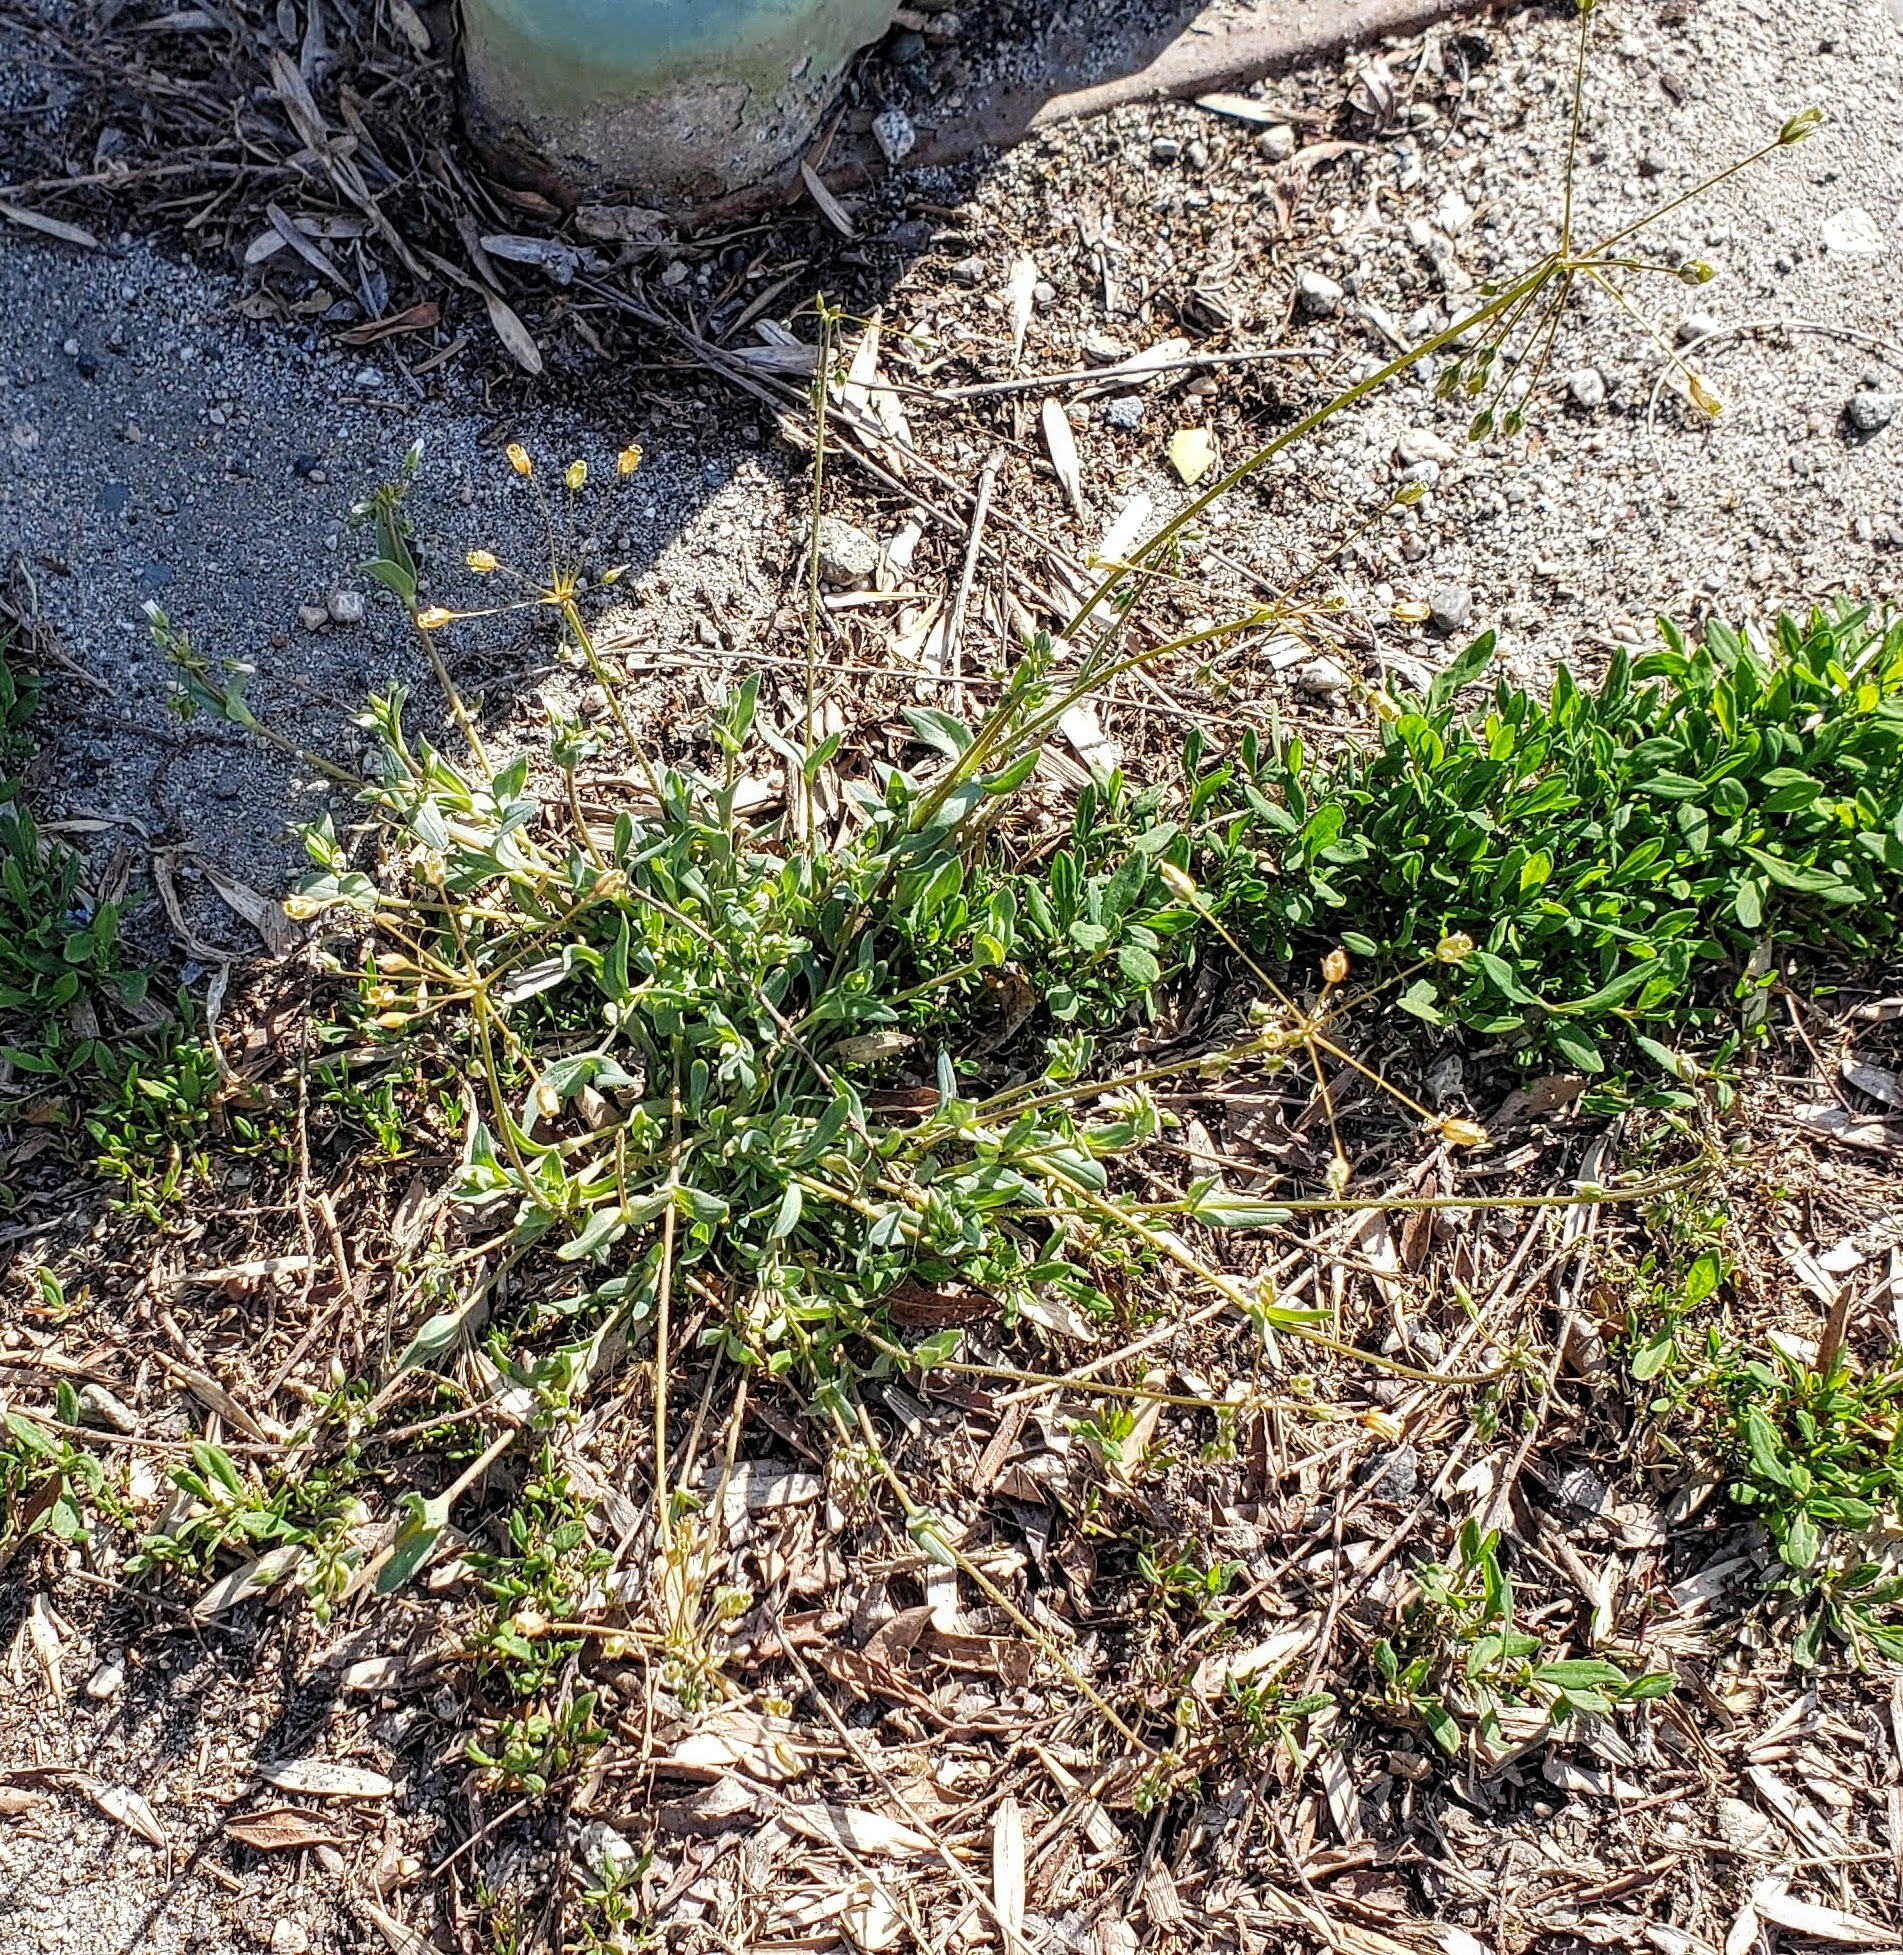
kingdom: Plantae
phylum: Tracheophyta
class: Magnoliopsida
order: Caryophyllales
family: Caryophyllaceae
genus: Holosteum
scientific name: Holosteum umbellatum
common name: Jagged chickweed
